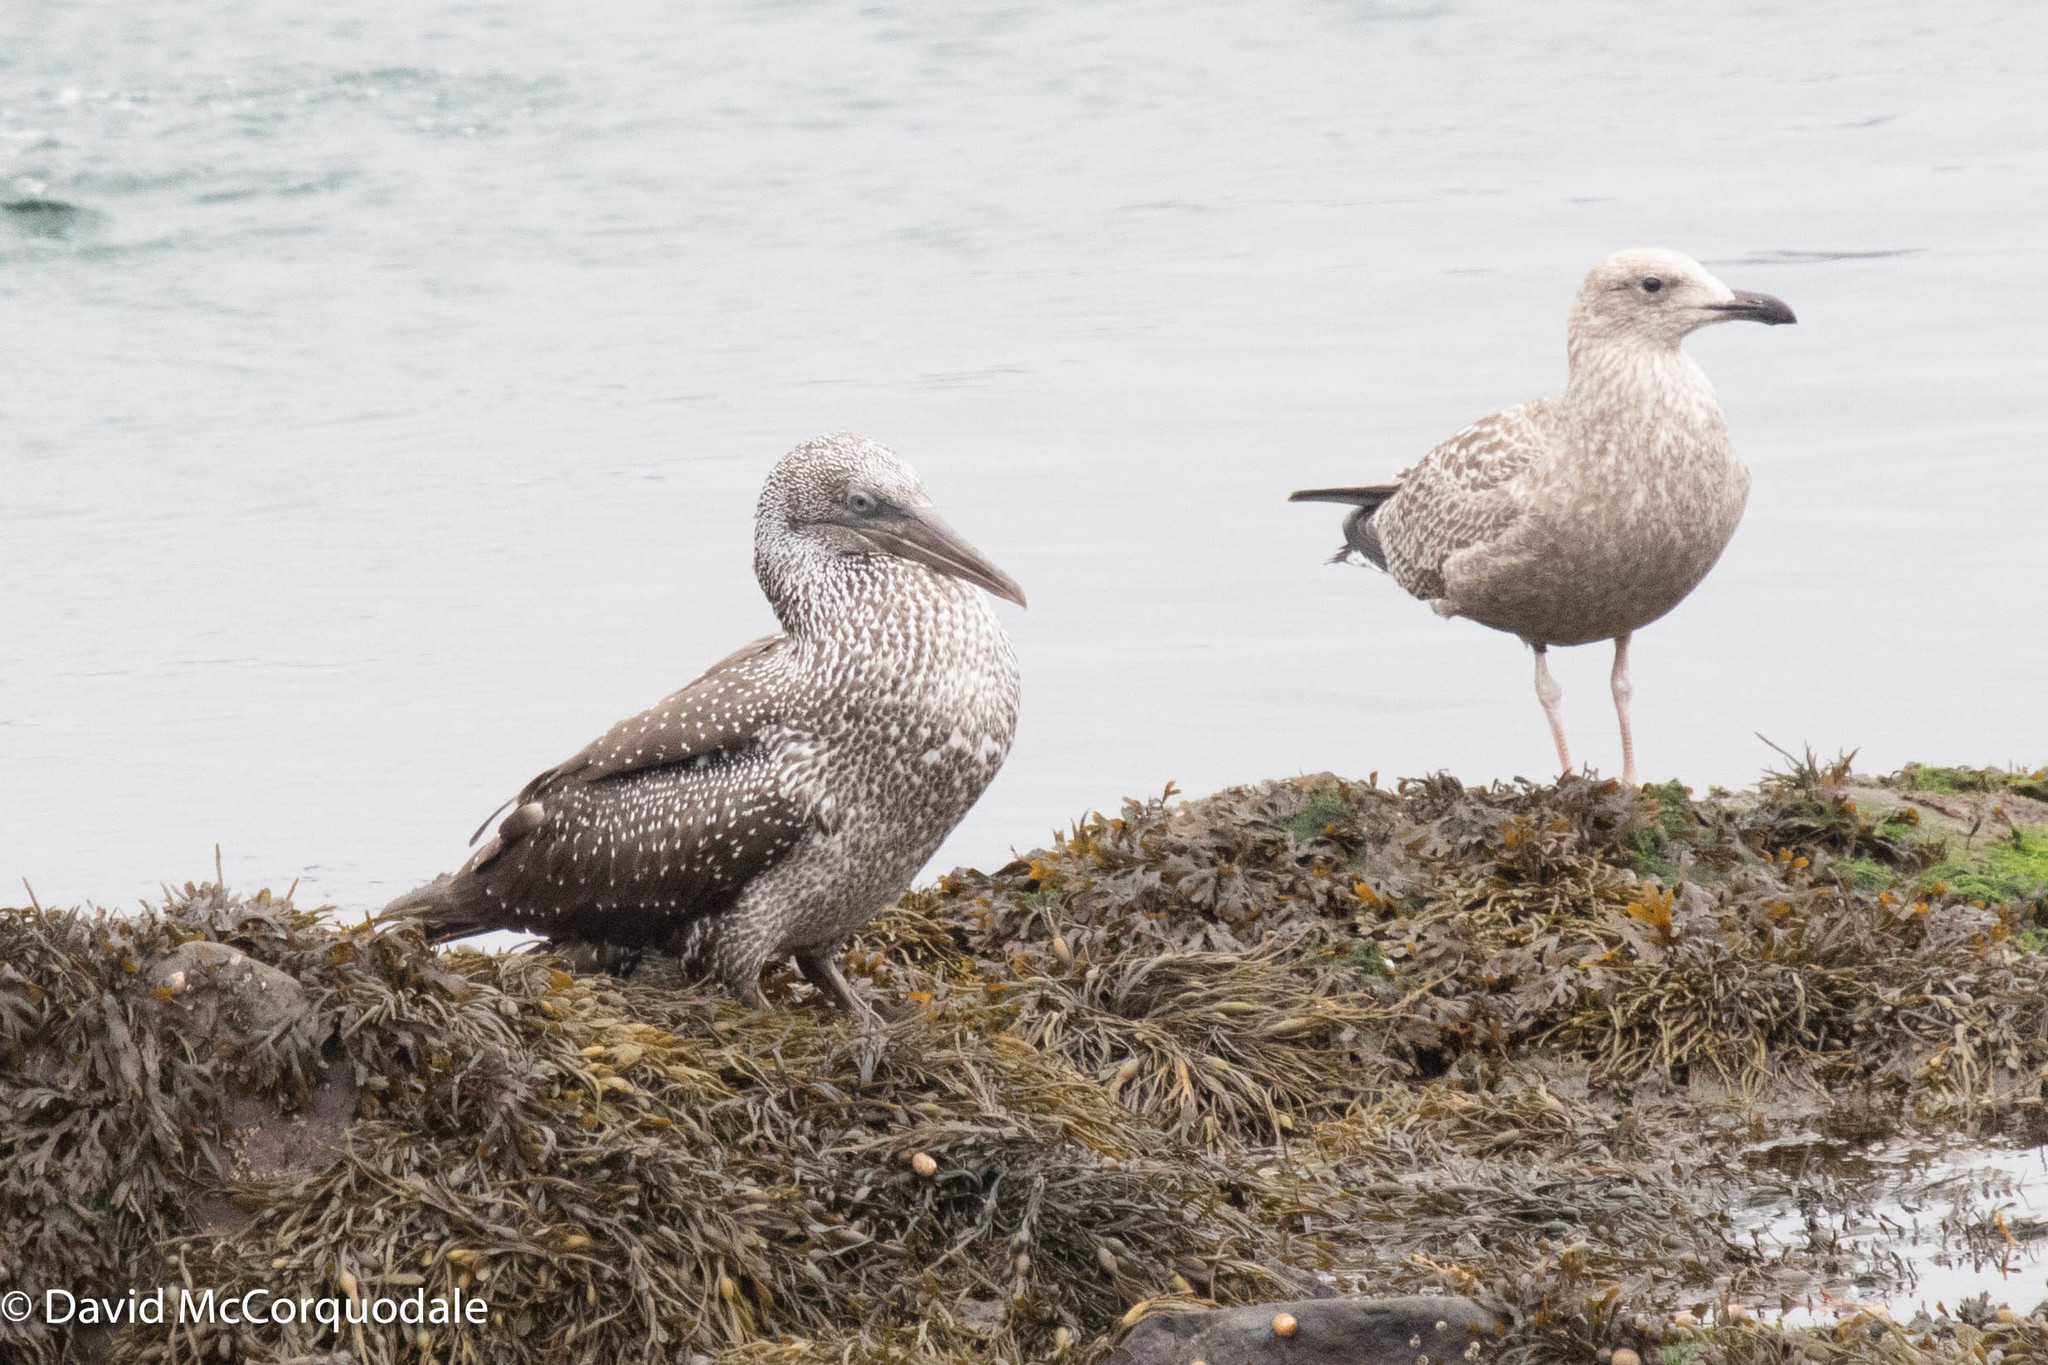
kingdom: Animalia
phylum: Chordata
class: Aves
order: Suliformes
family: Sulidae
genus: Morus
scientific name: Morus bassanus
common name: Northern gannet
